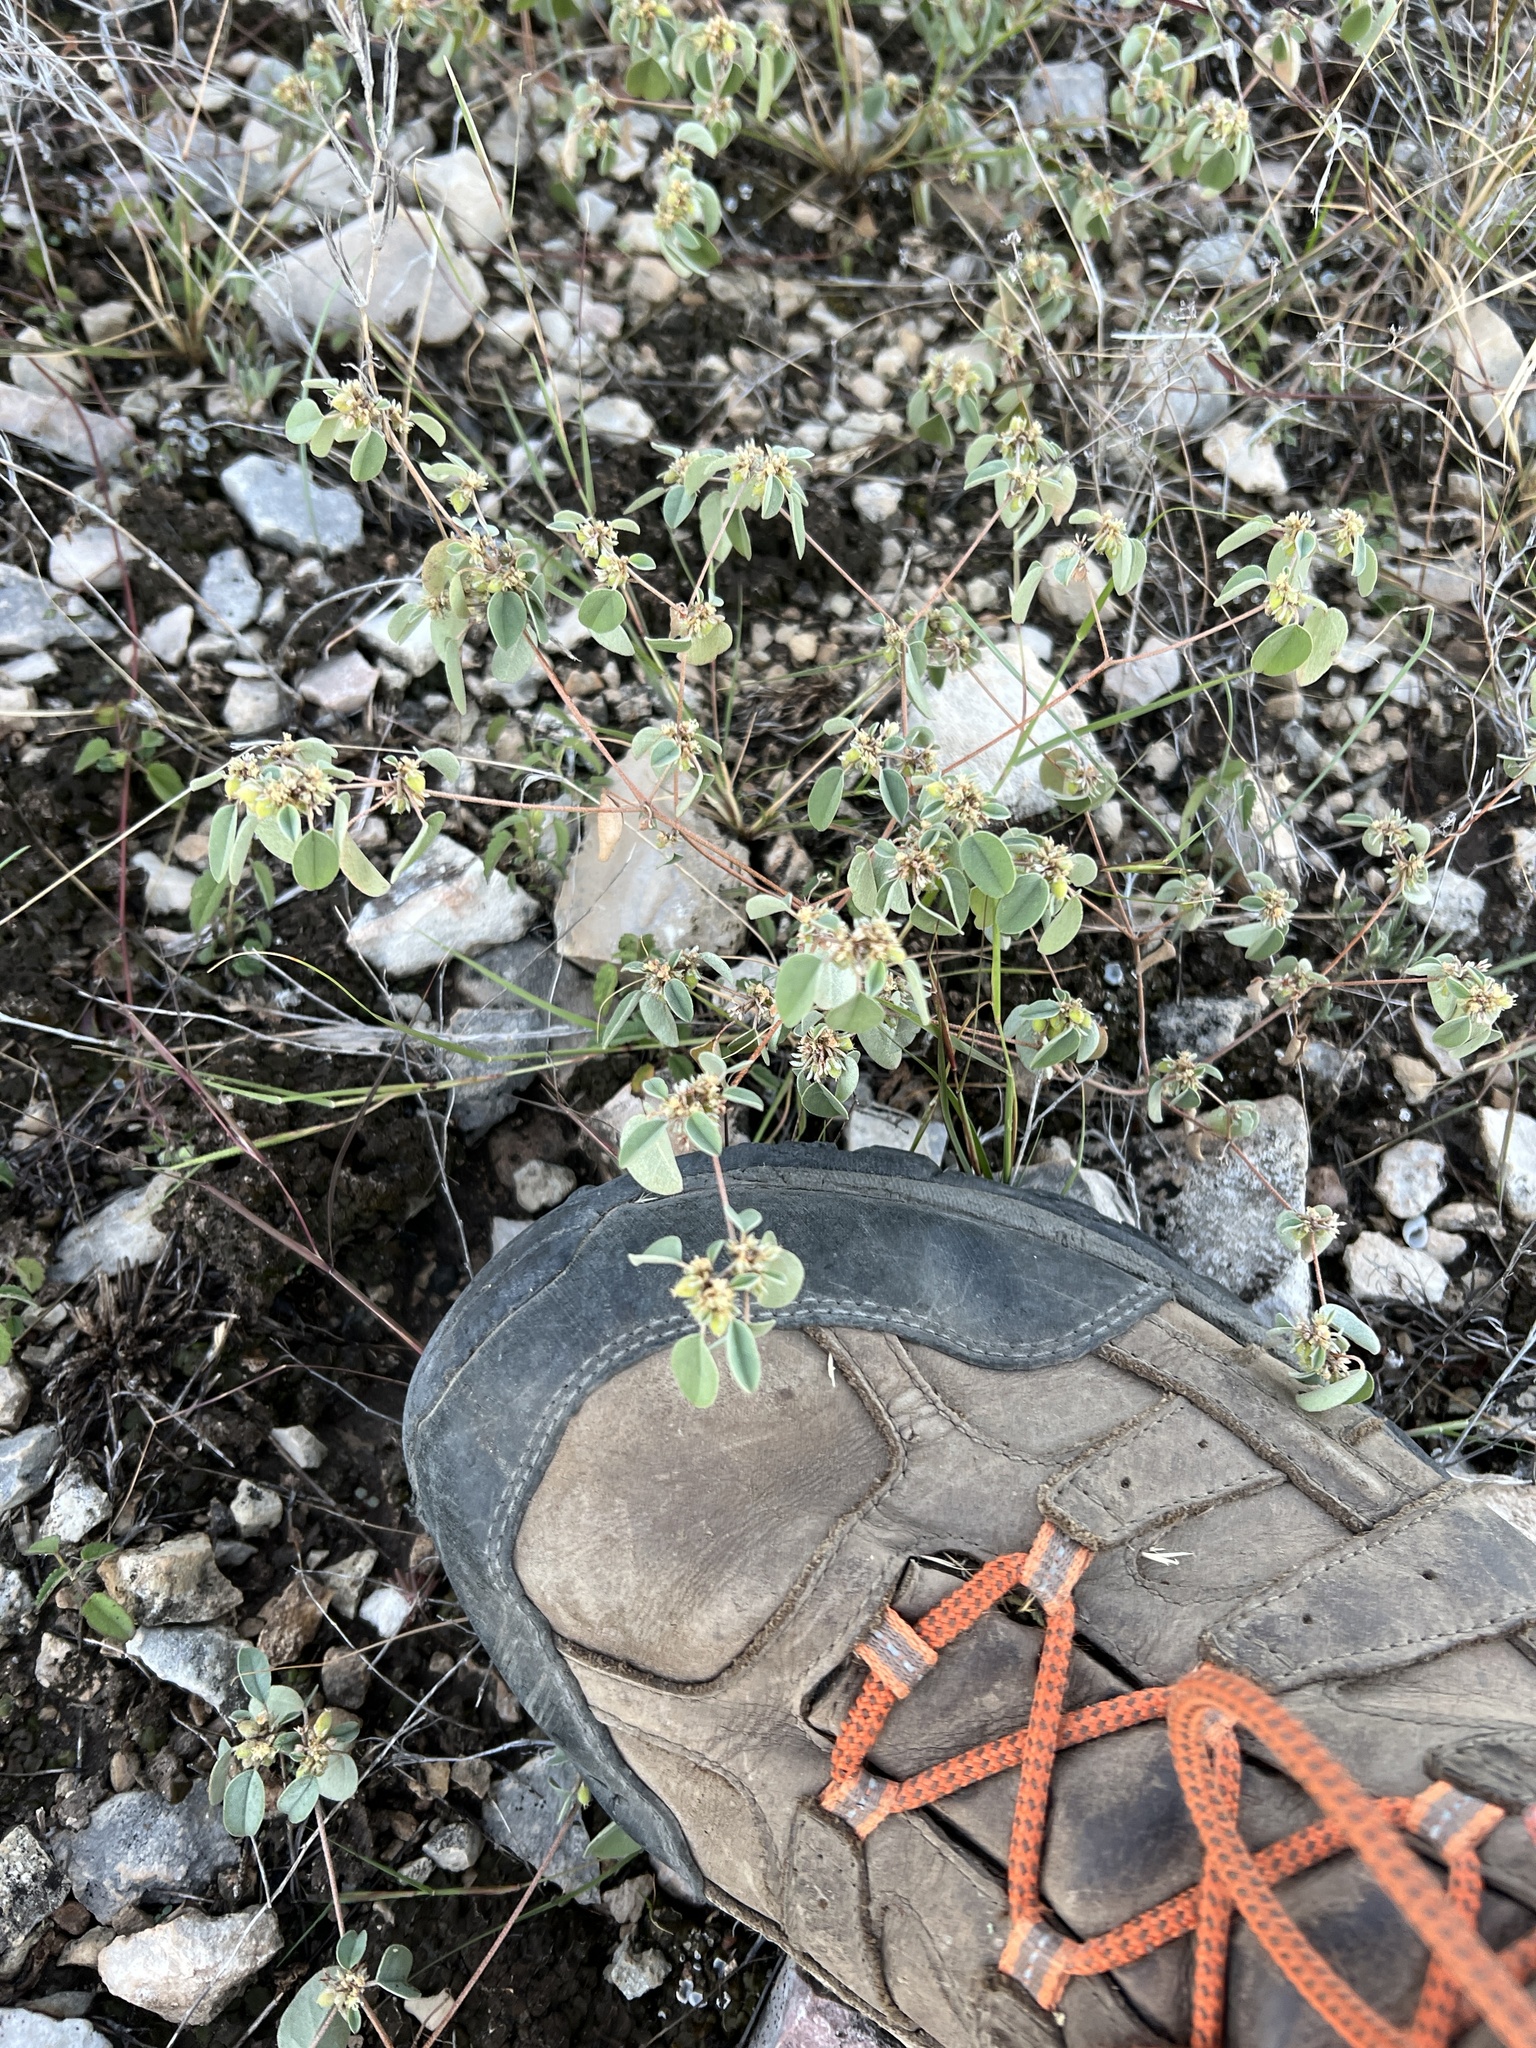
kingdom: Plantae
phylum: Tracheophyta
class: Magnoliopsida
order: Malpighiales
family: Euphorbiaceae
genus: Croton
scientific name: Croton monanthogynus
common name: One-seed croton
